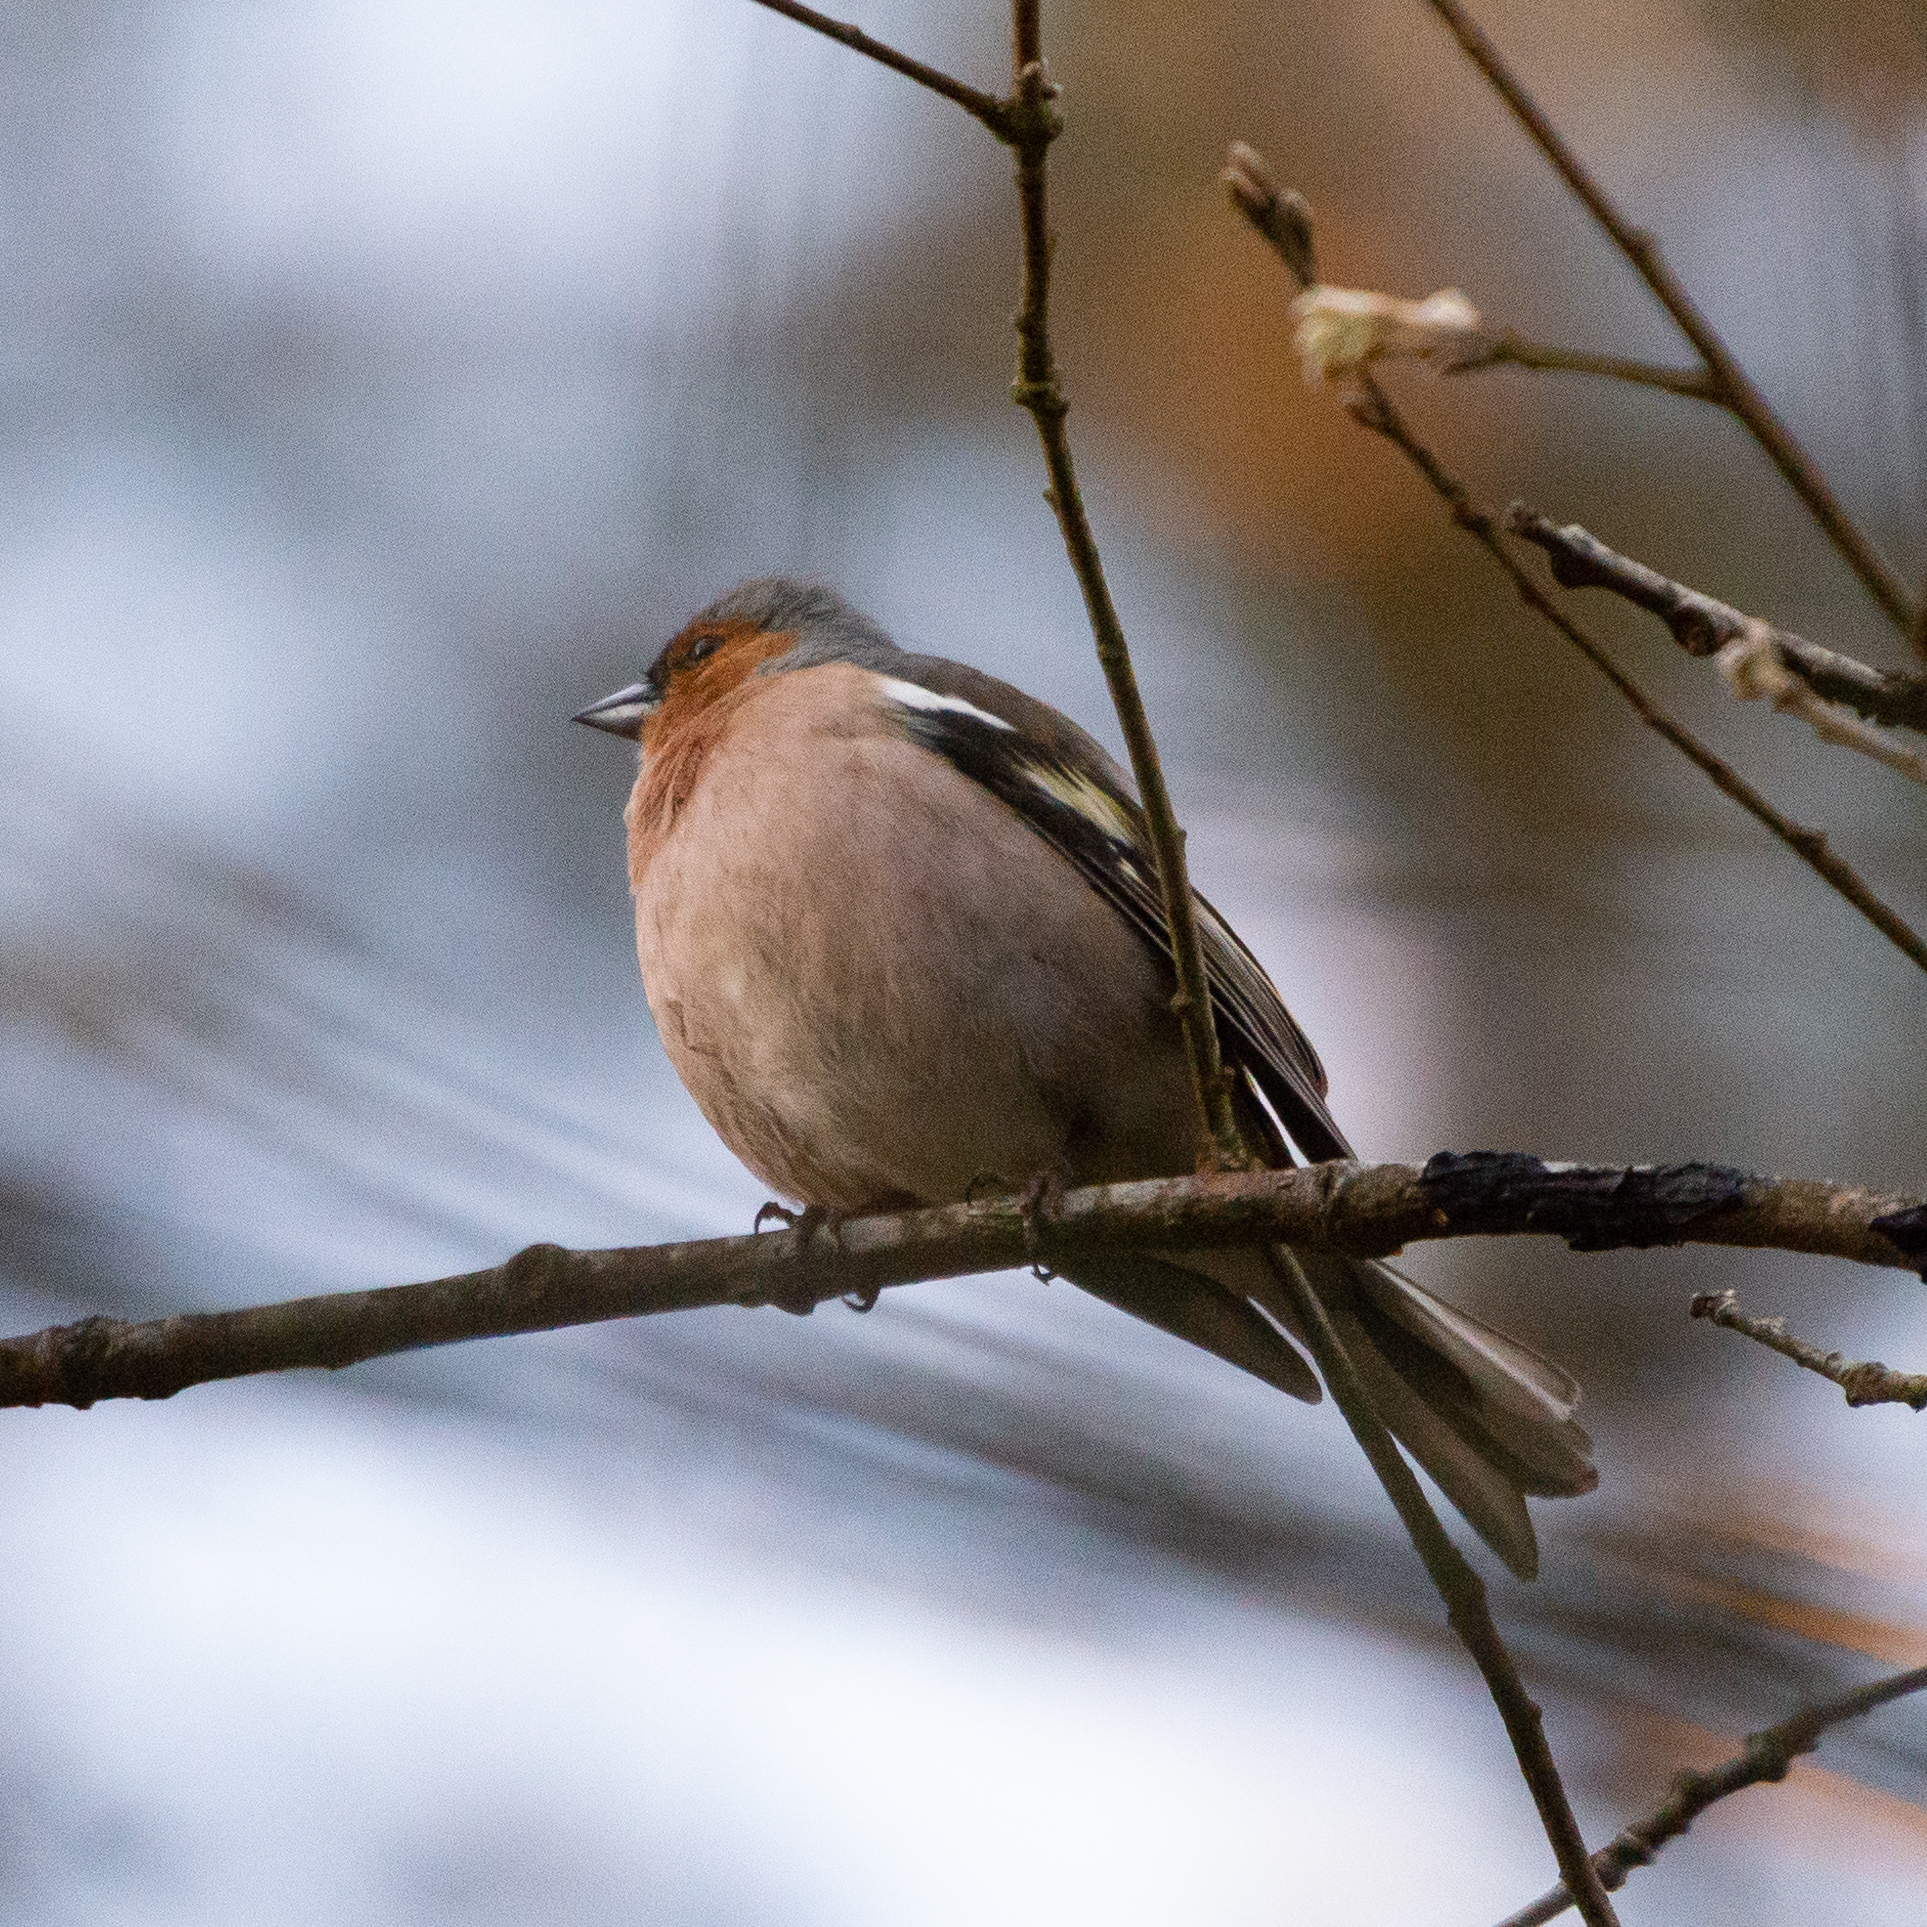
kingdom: Animalia
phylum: Chordata
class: Aves
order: Passeriformes
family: Fringillidae
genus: Fringilla
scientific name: Fringilla coelebs
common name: Common chaffinch
